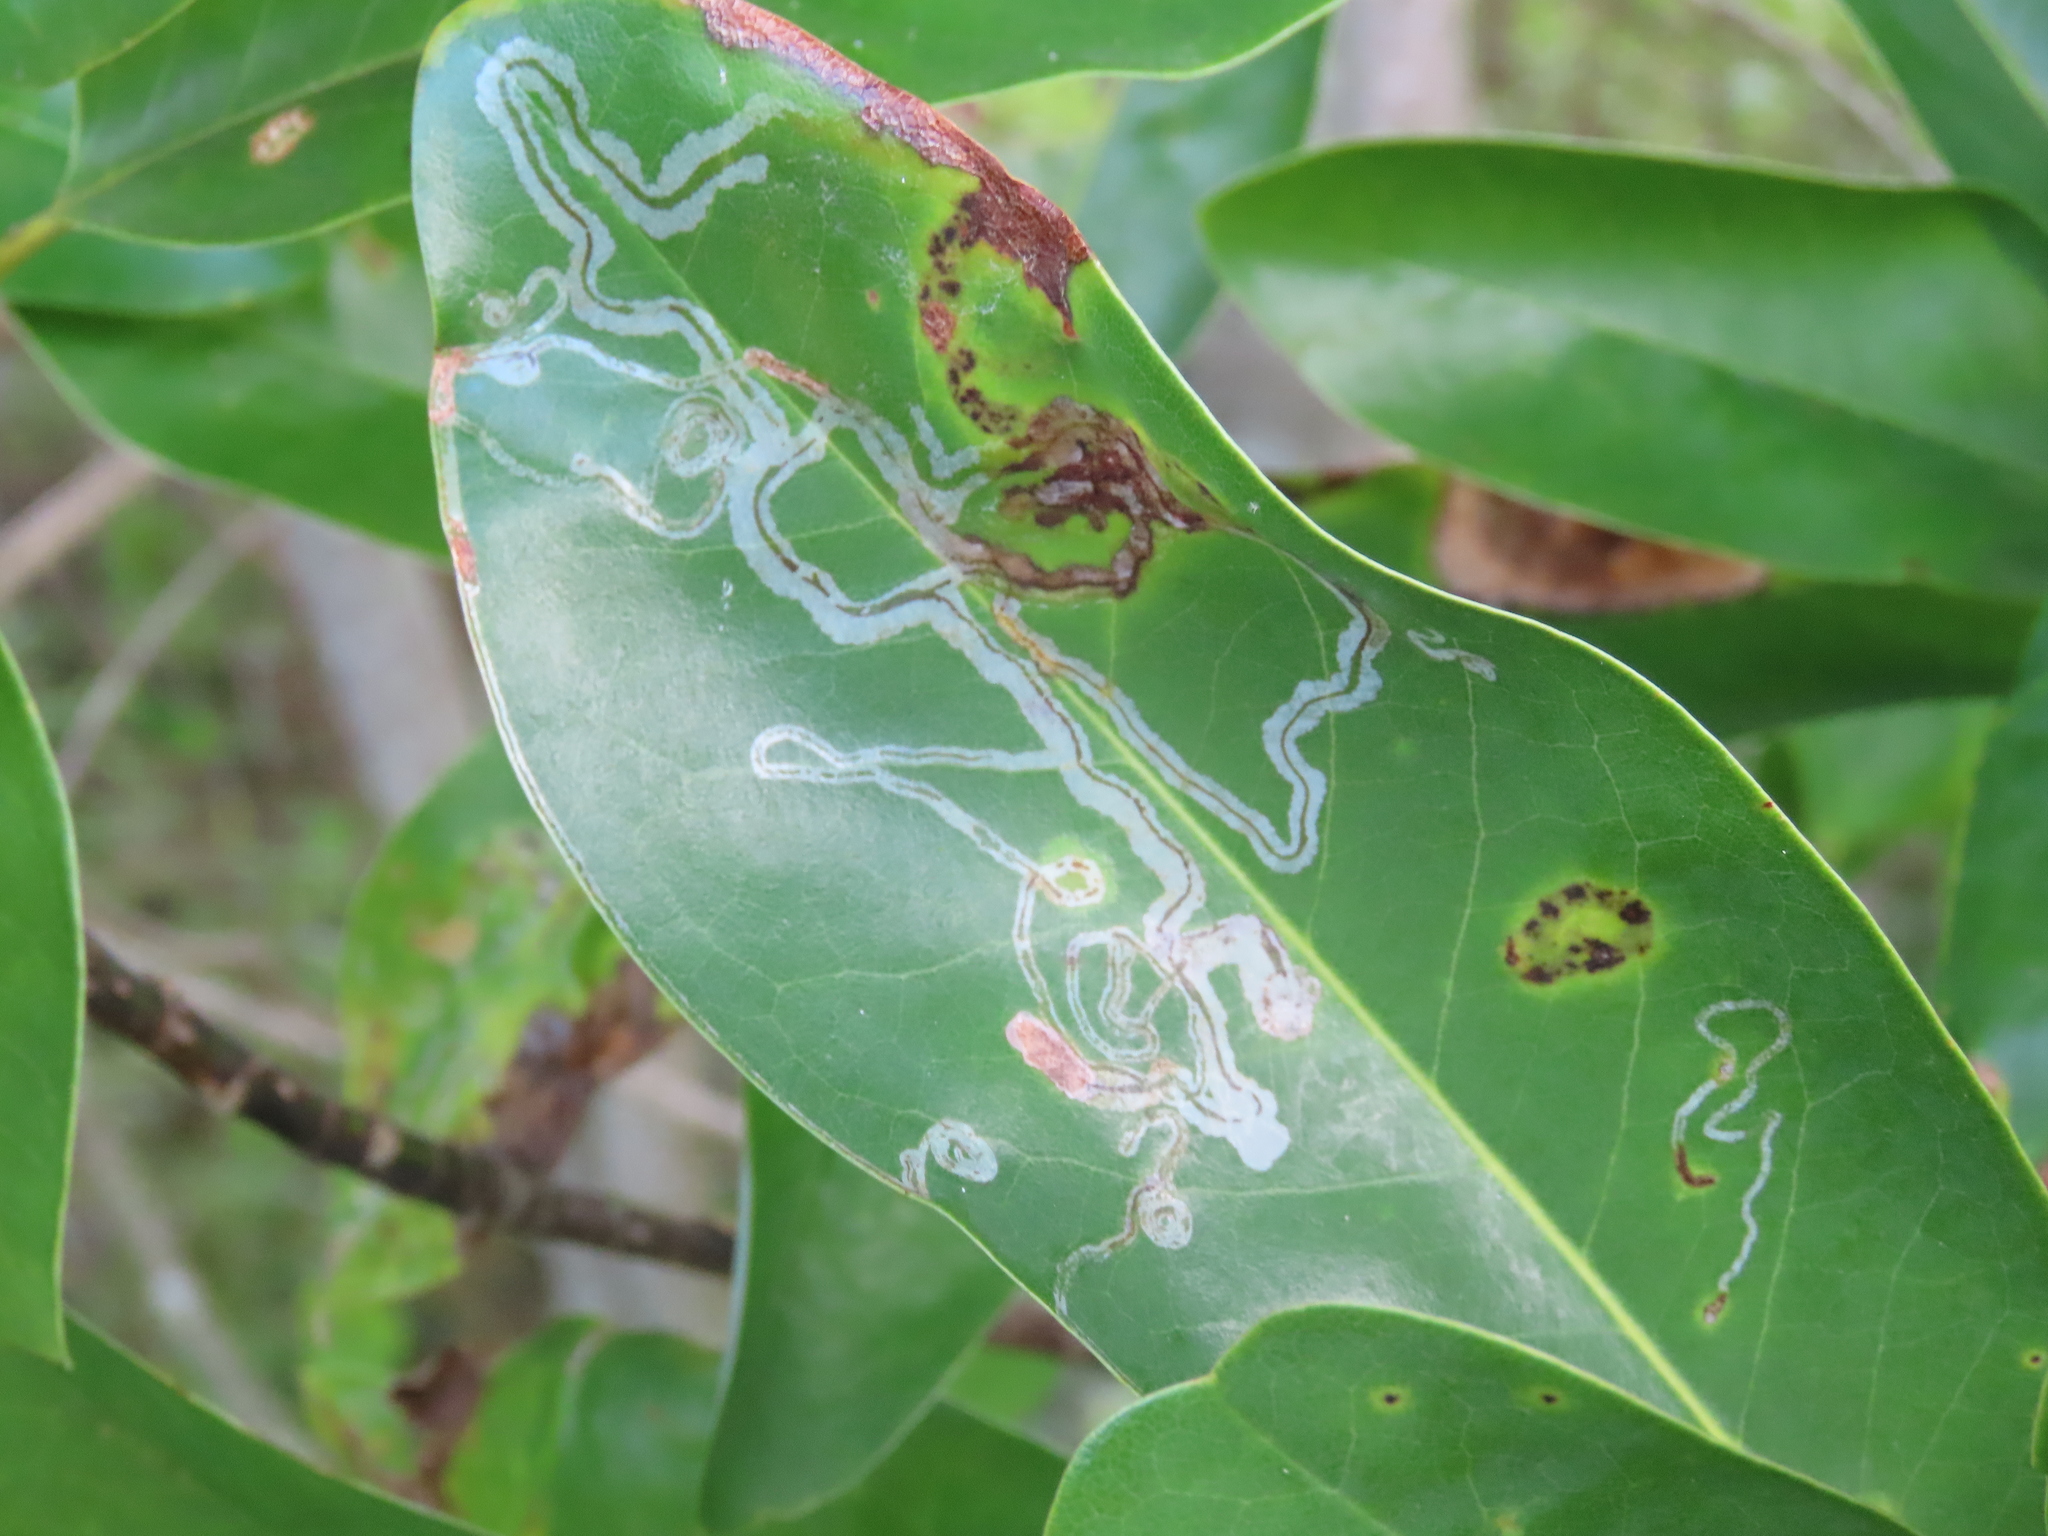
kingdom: Animalia
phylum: Arthropoda
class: Insecta
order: Lepidoptera
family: Gracillariidae
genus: Phyllocnistis
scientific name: Phyllocnistis liriodendronella
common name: Tulip tree leaf miner
